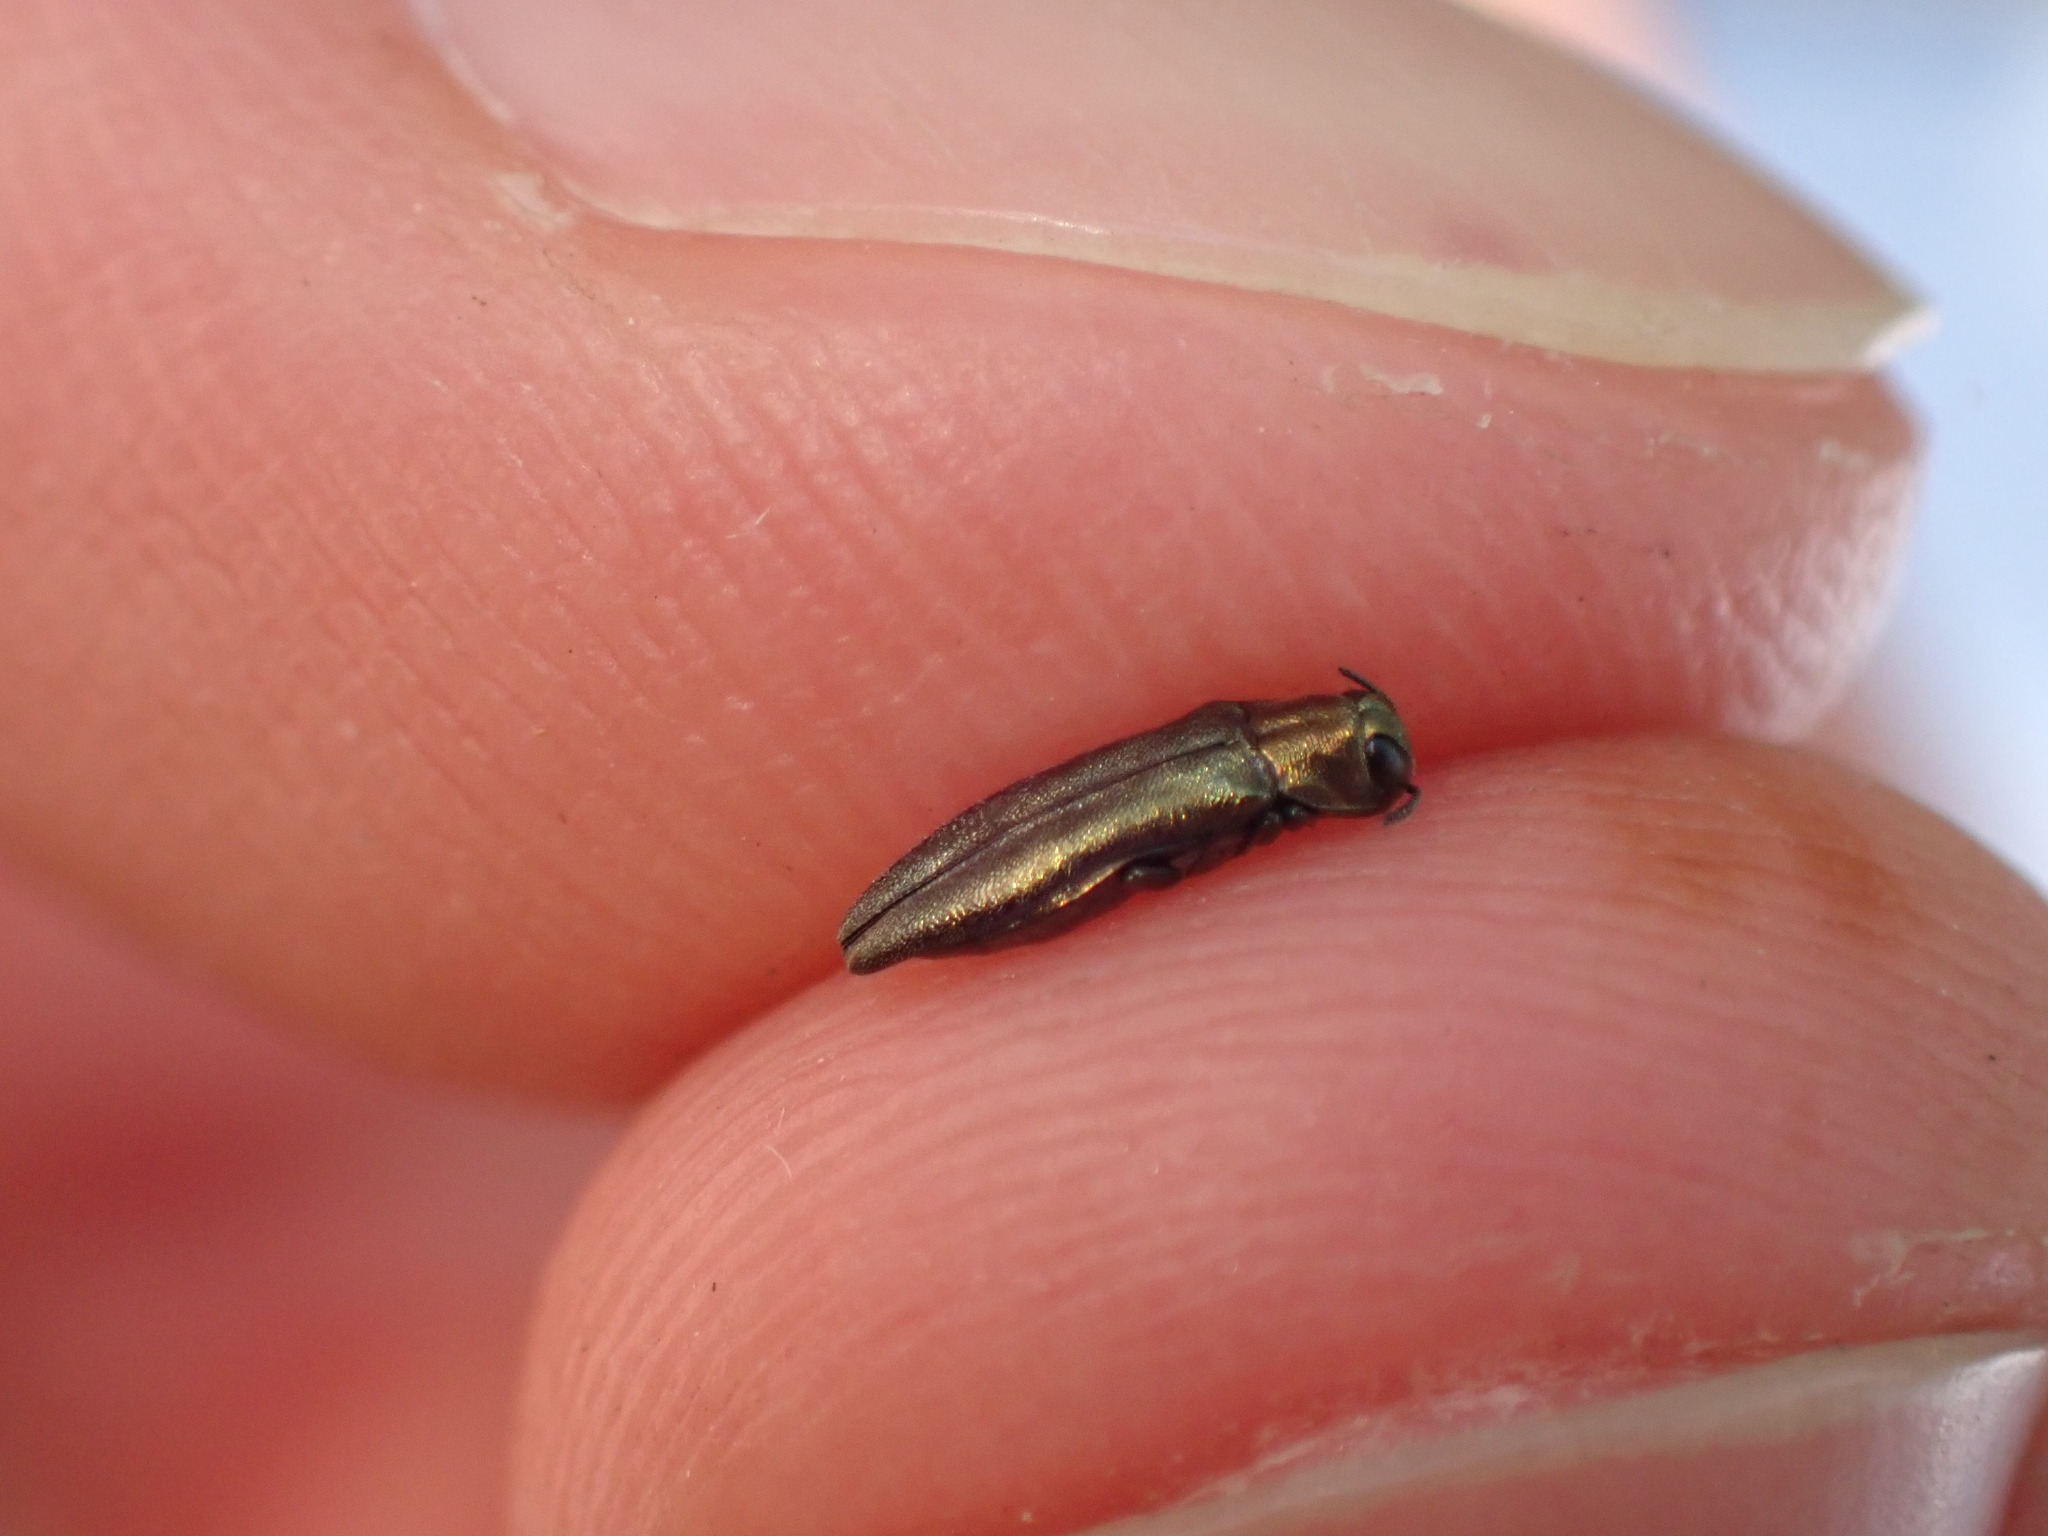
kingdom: Animalia
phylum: Arthropoda
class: Insecta
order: Coleoptera
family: Buprestidae
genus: Agrilus
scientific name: Agrilus olivicolor
